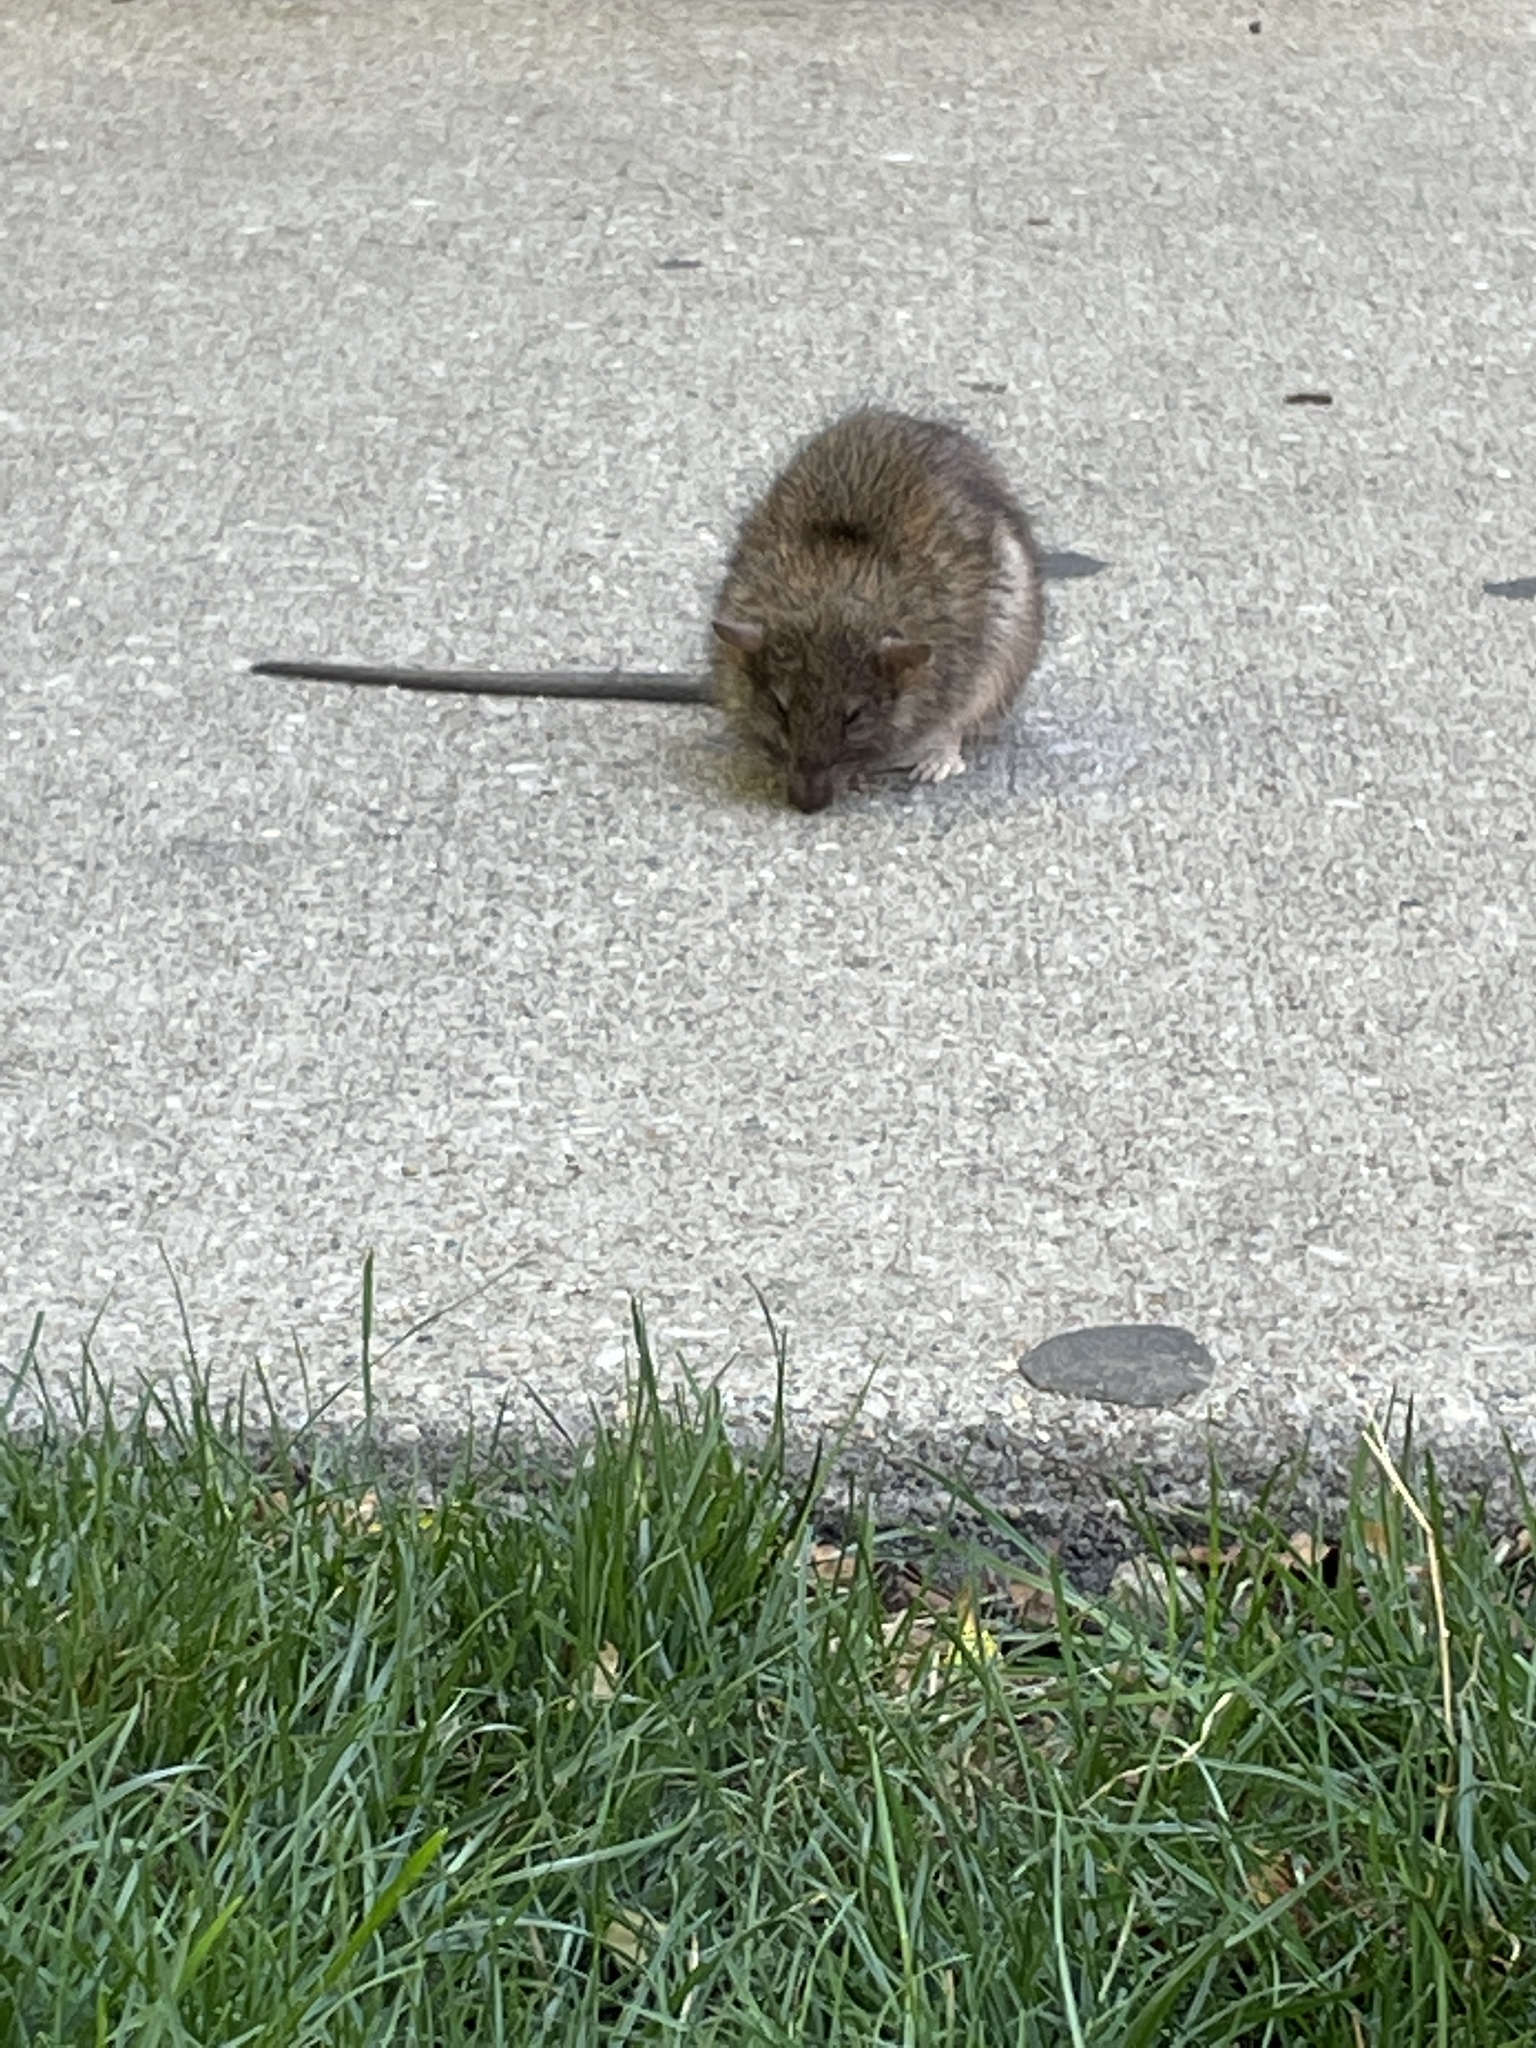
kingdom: Animalia
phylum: Chordata
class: Mammalia
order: Rodentia
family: Muridae
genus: Rattus
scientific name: Rattus norvegicus
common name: Brown rat
